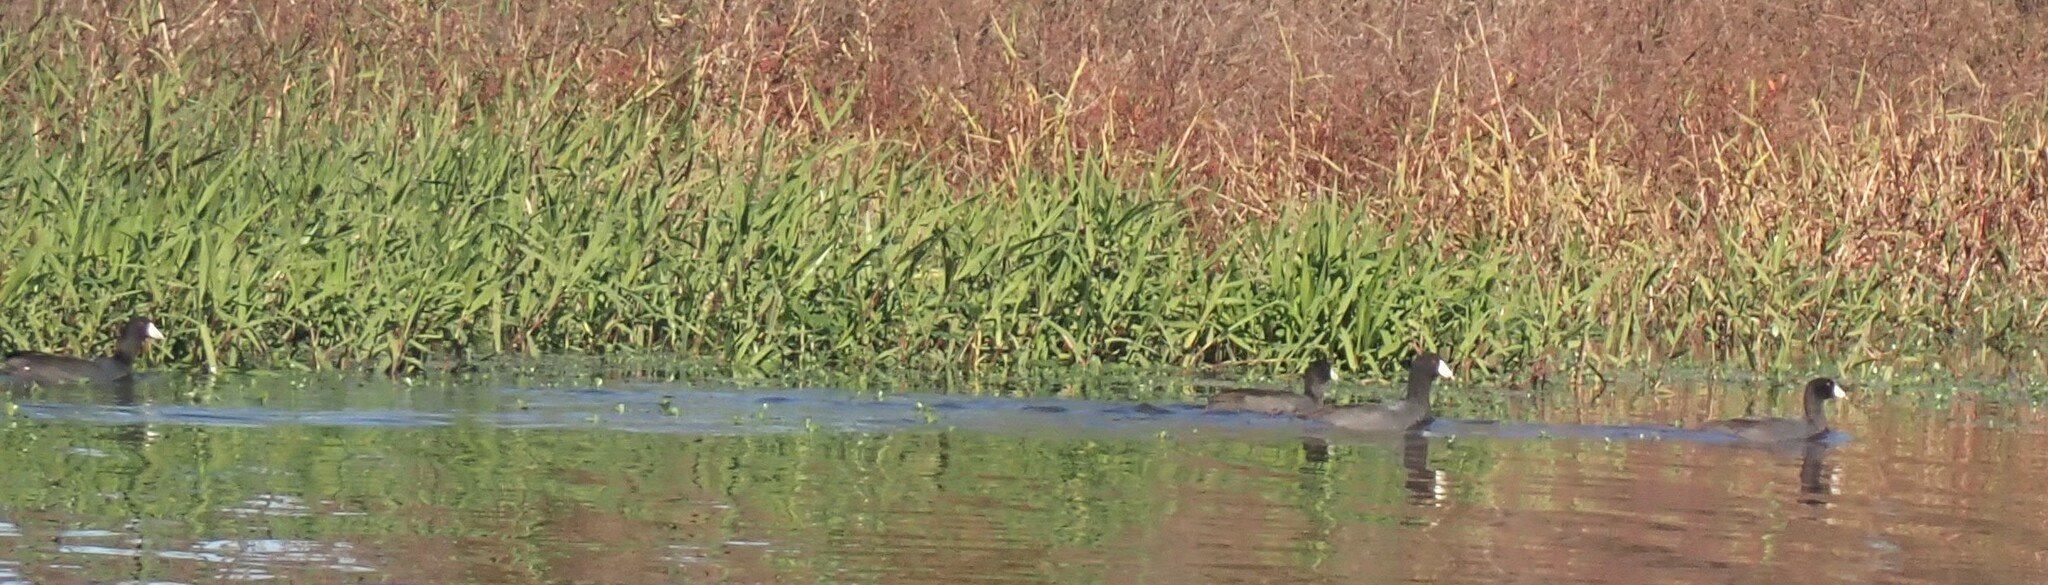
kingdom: Animalia
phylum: Chordata
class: Aves
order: Gruiformes
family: Rallidae
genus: Fulica
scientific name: Fulica americana
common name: American coot
